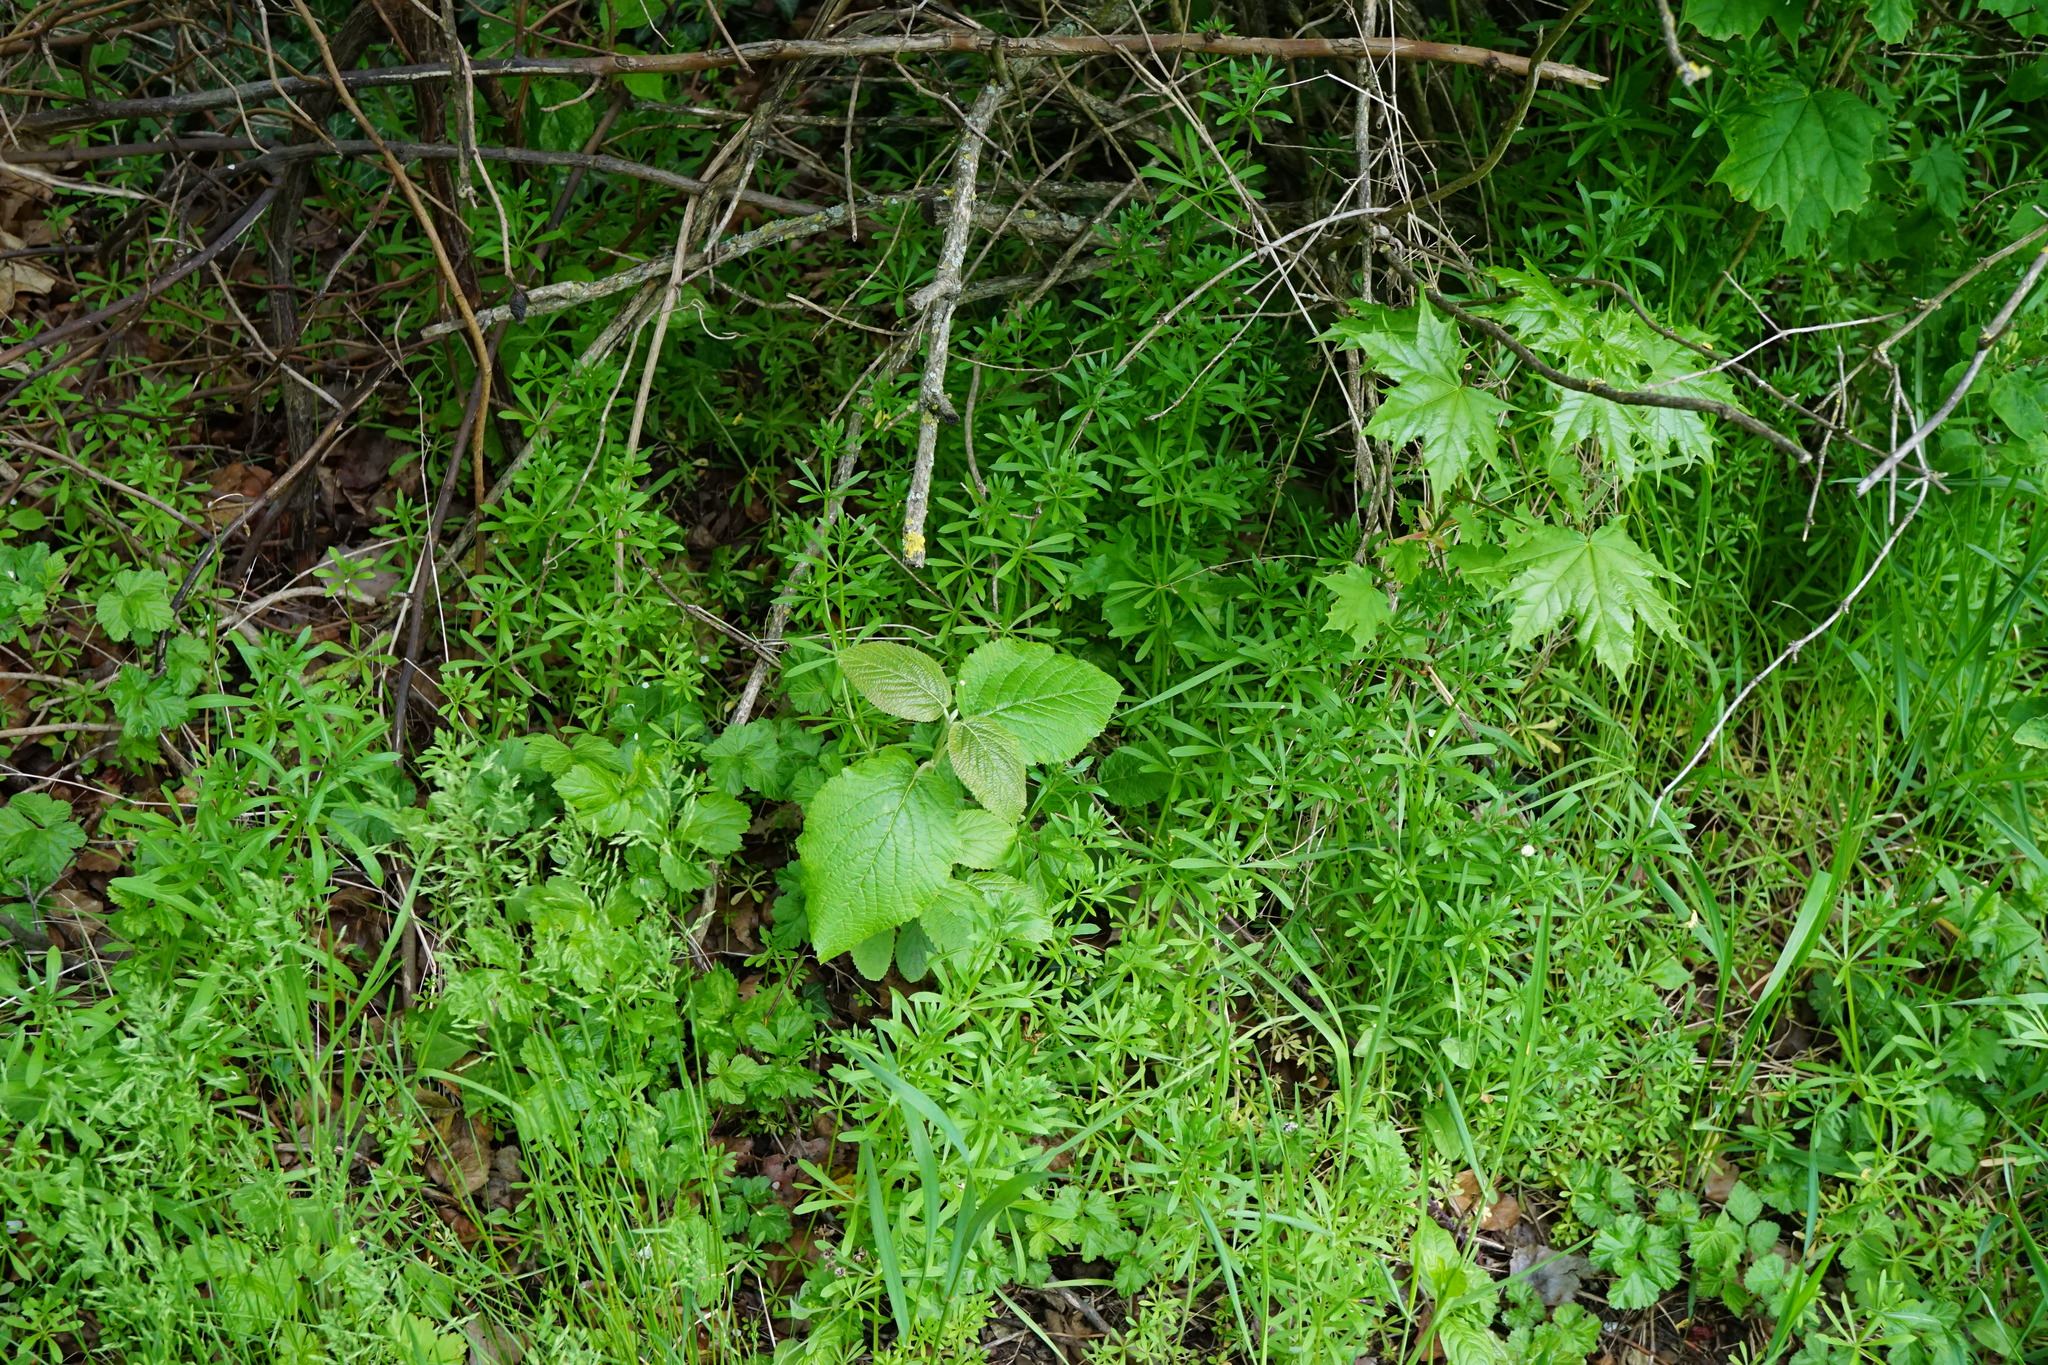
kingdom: Plantae
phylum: Tracheophyta
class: Magnoliopsida
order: Dipsacales
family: Viburnaceae
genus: Viburnum
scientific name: Viburnum lantana
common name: Wayfaring tree
